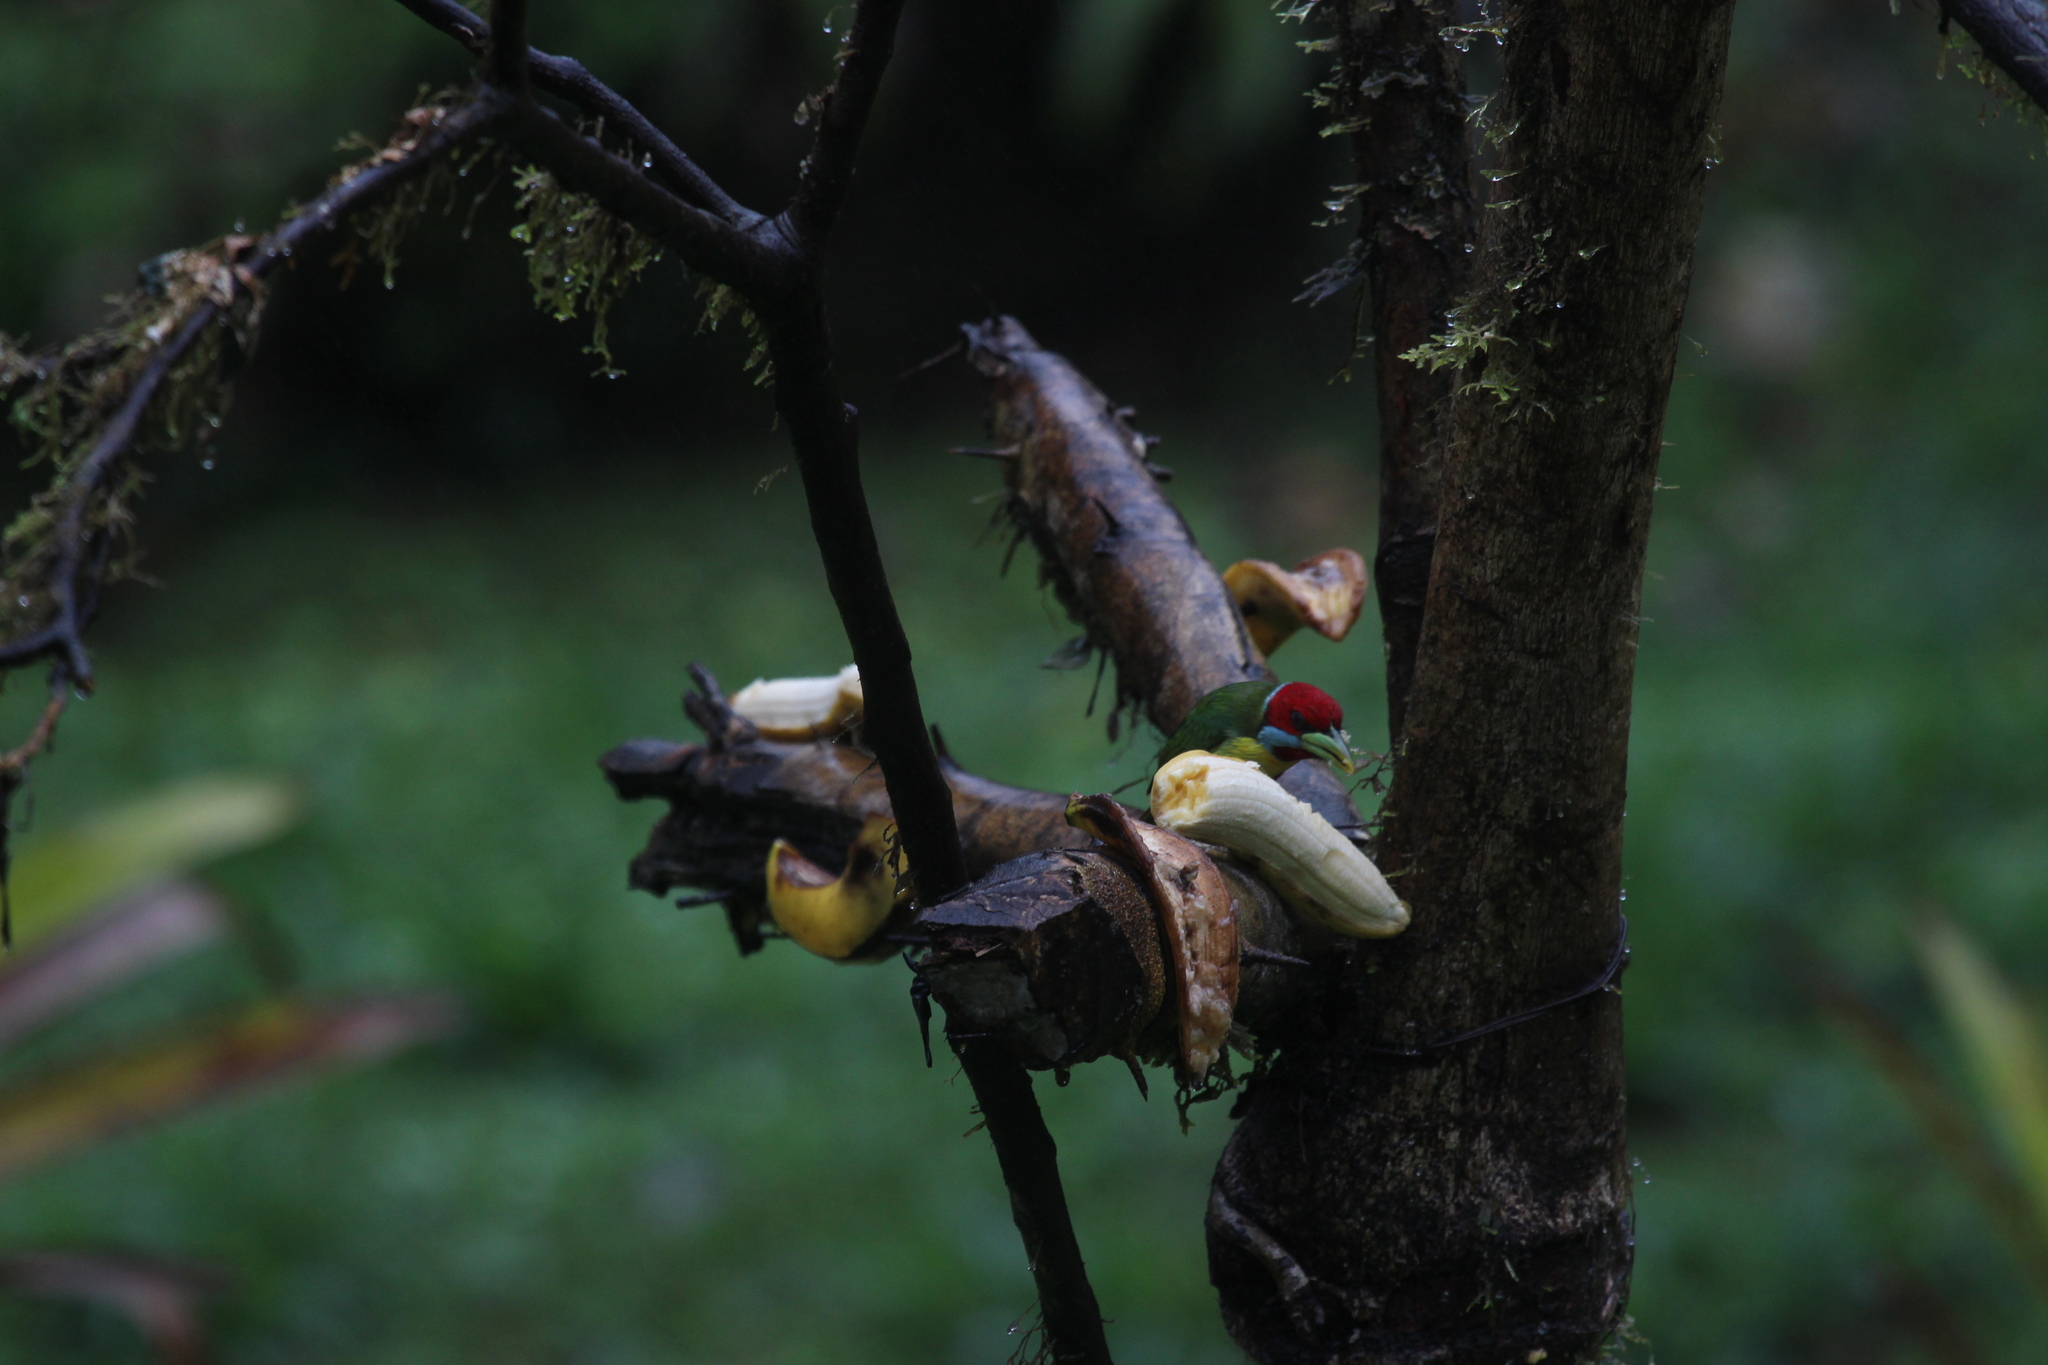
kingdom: Animalia
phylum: Chordata
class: Aves
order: Piciformes
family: Capitonidae
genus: Eubucco
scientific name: Eubucco versicolor
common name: Versicolored barbet
